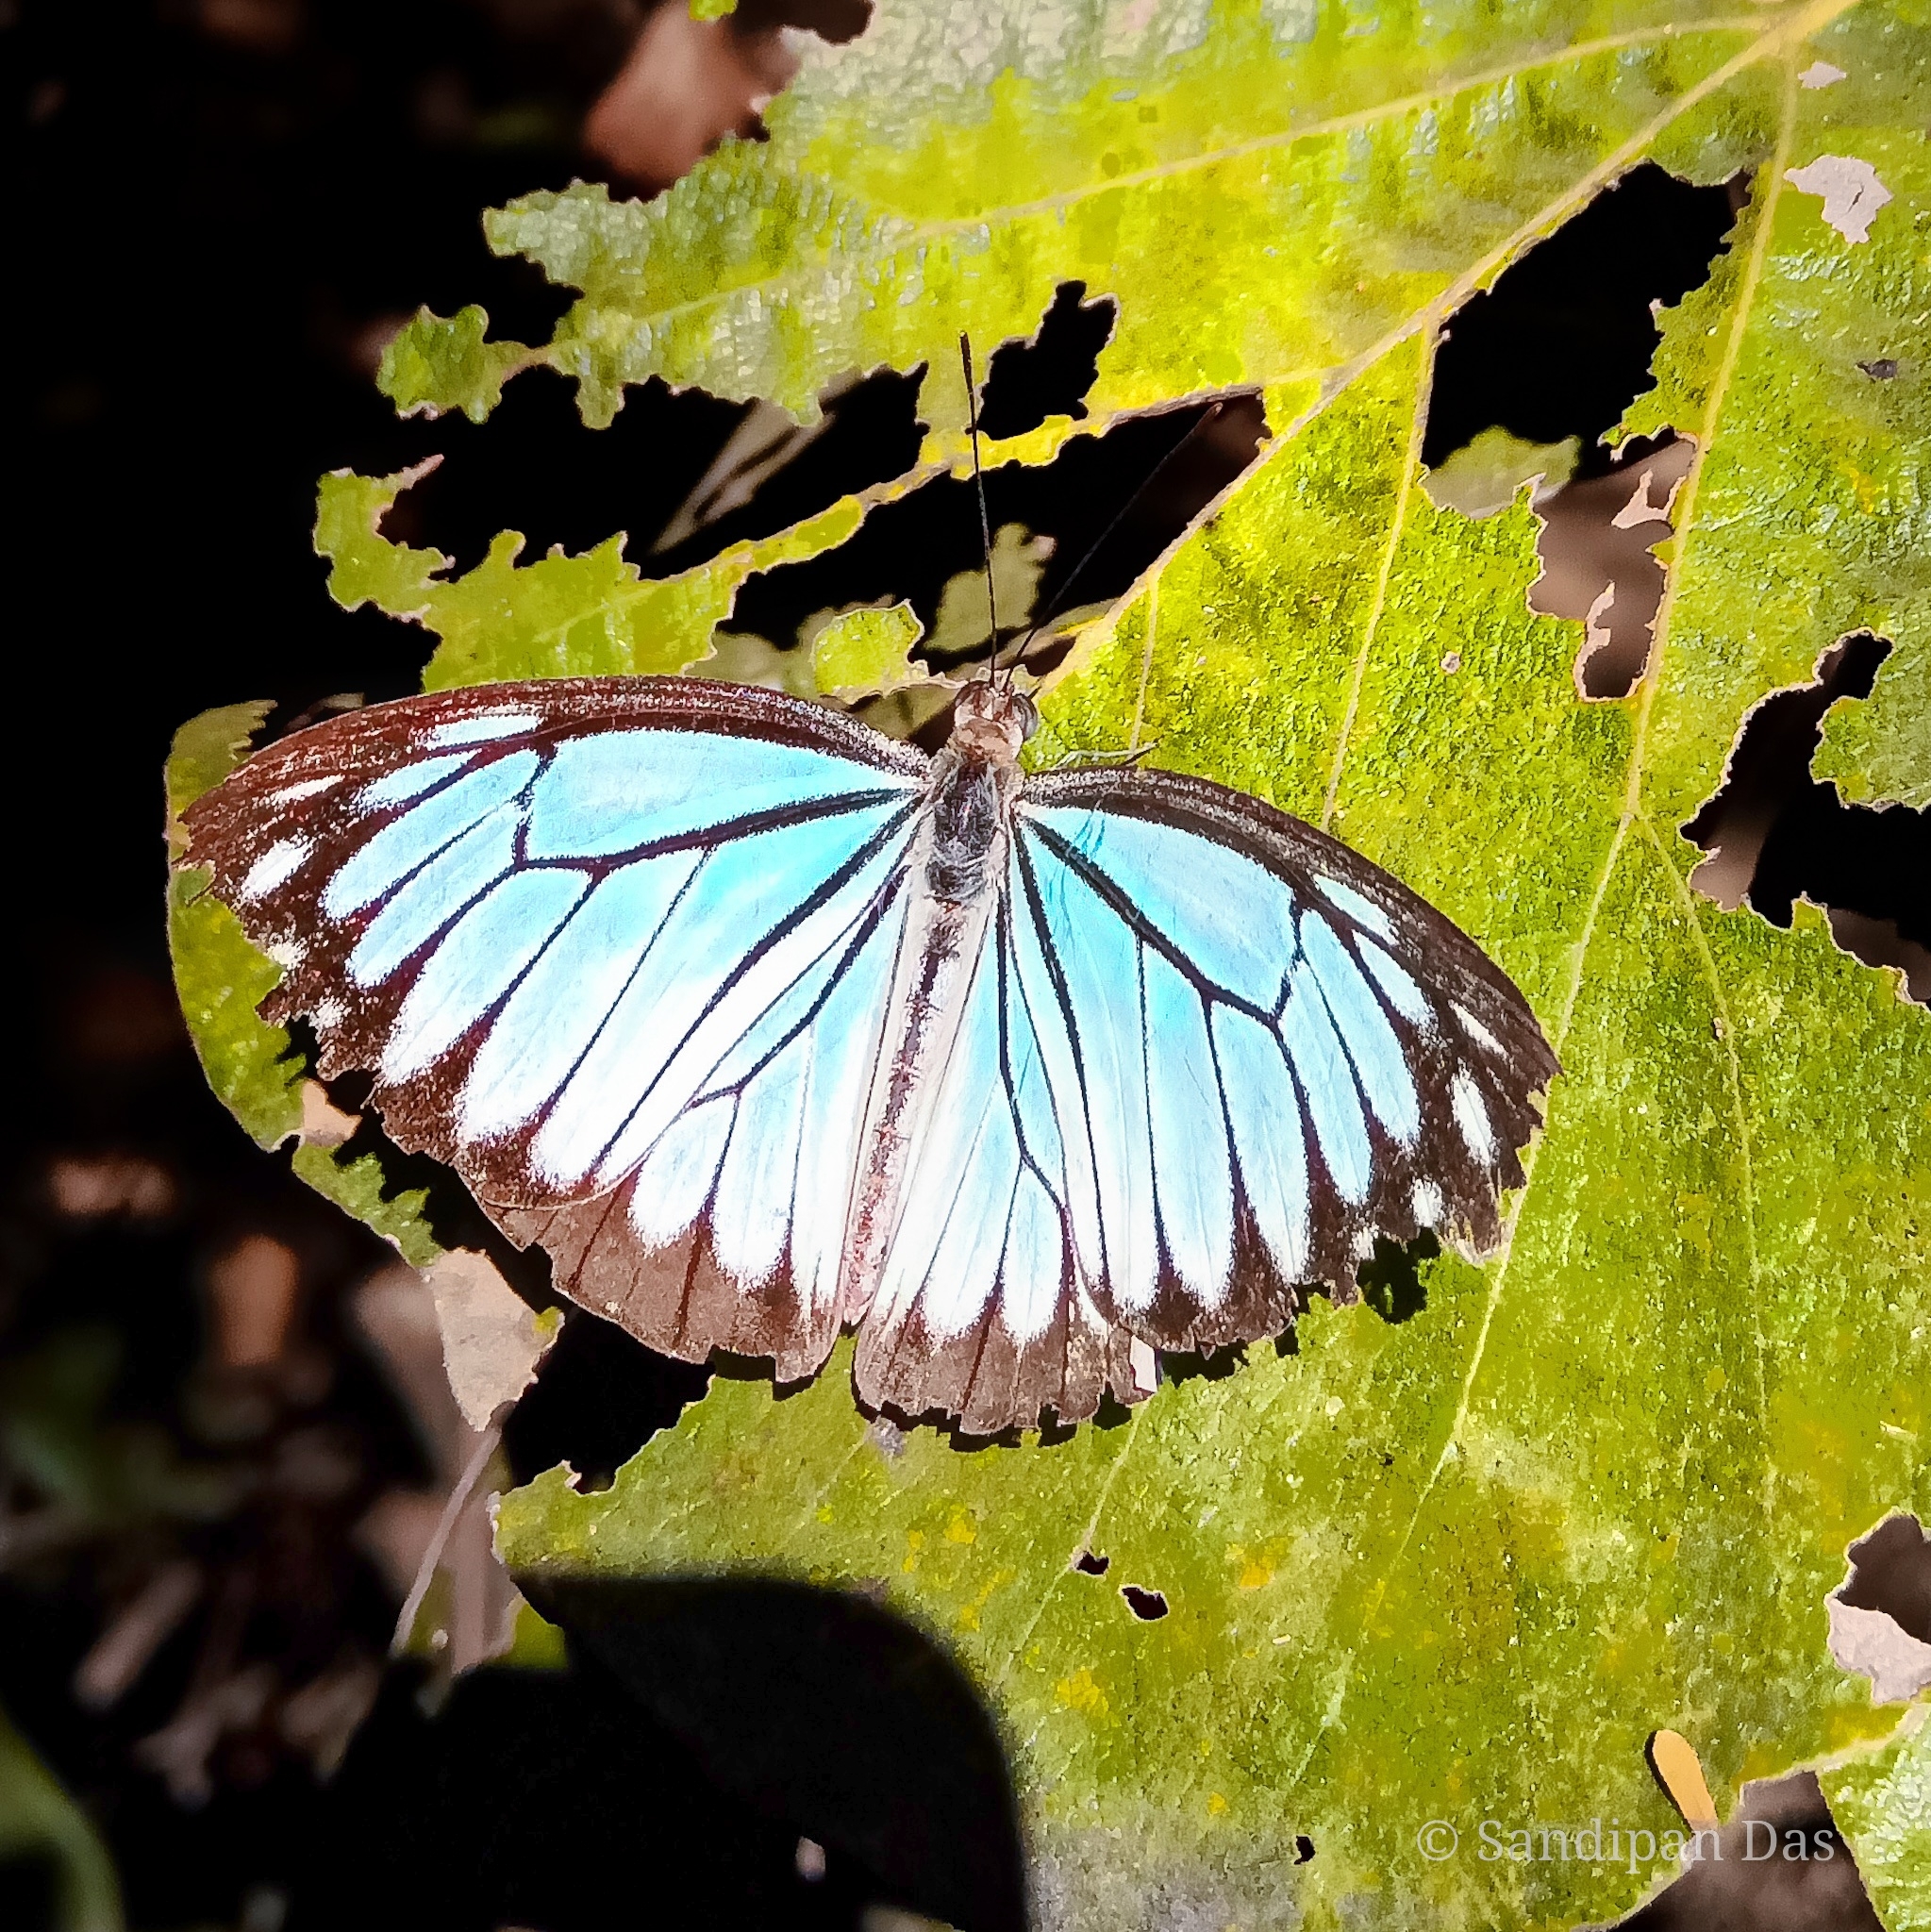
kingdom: Animalia
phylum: Arthropoda
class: Insecta
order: Lepidoptera
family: Pieridae
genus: Pareronia
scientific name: Pareronia hippia
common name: Indian wanderer
